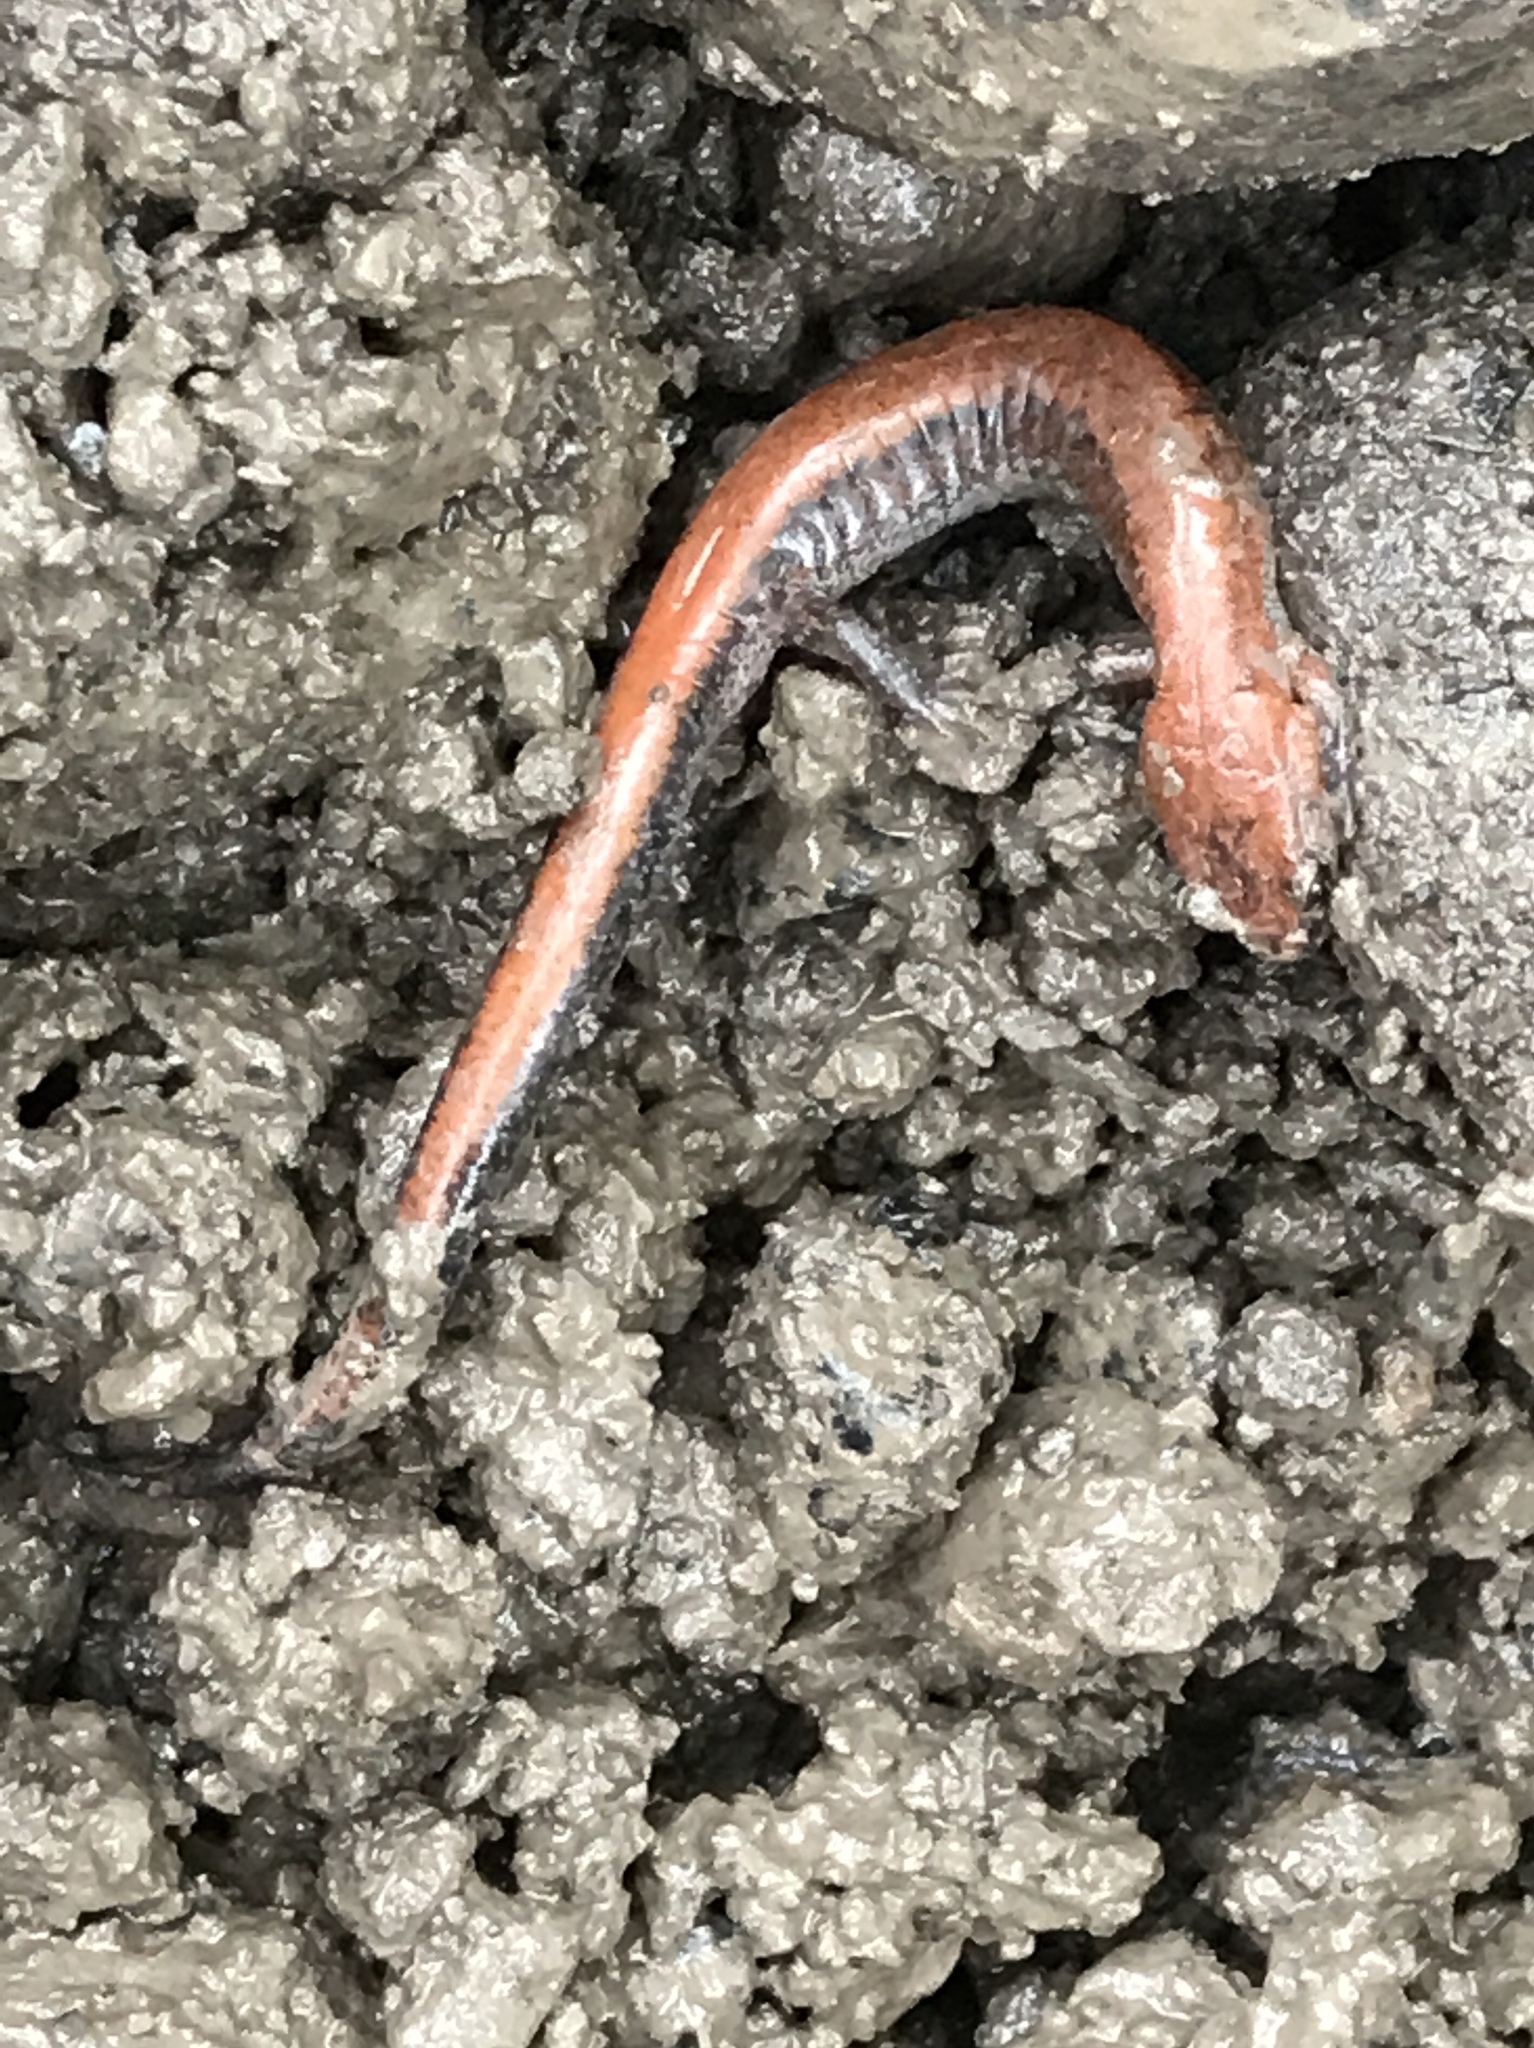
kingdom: Animalia
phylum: Chordata
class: Amphibia
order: Caudata
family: Plethodontidae
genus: Plethodon
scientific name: Plethodon cinereus
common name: Redback salamander
